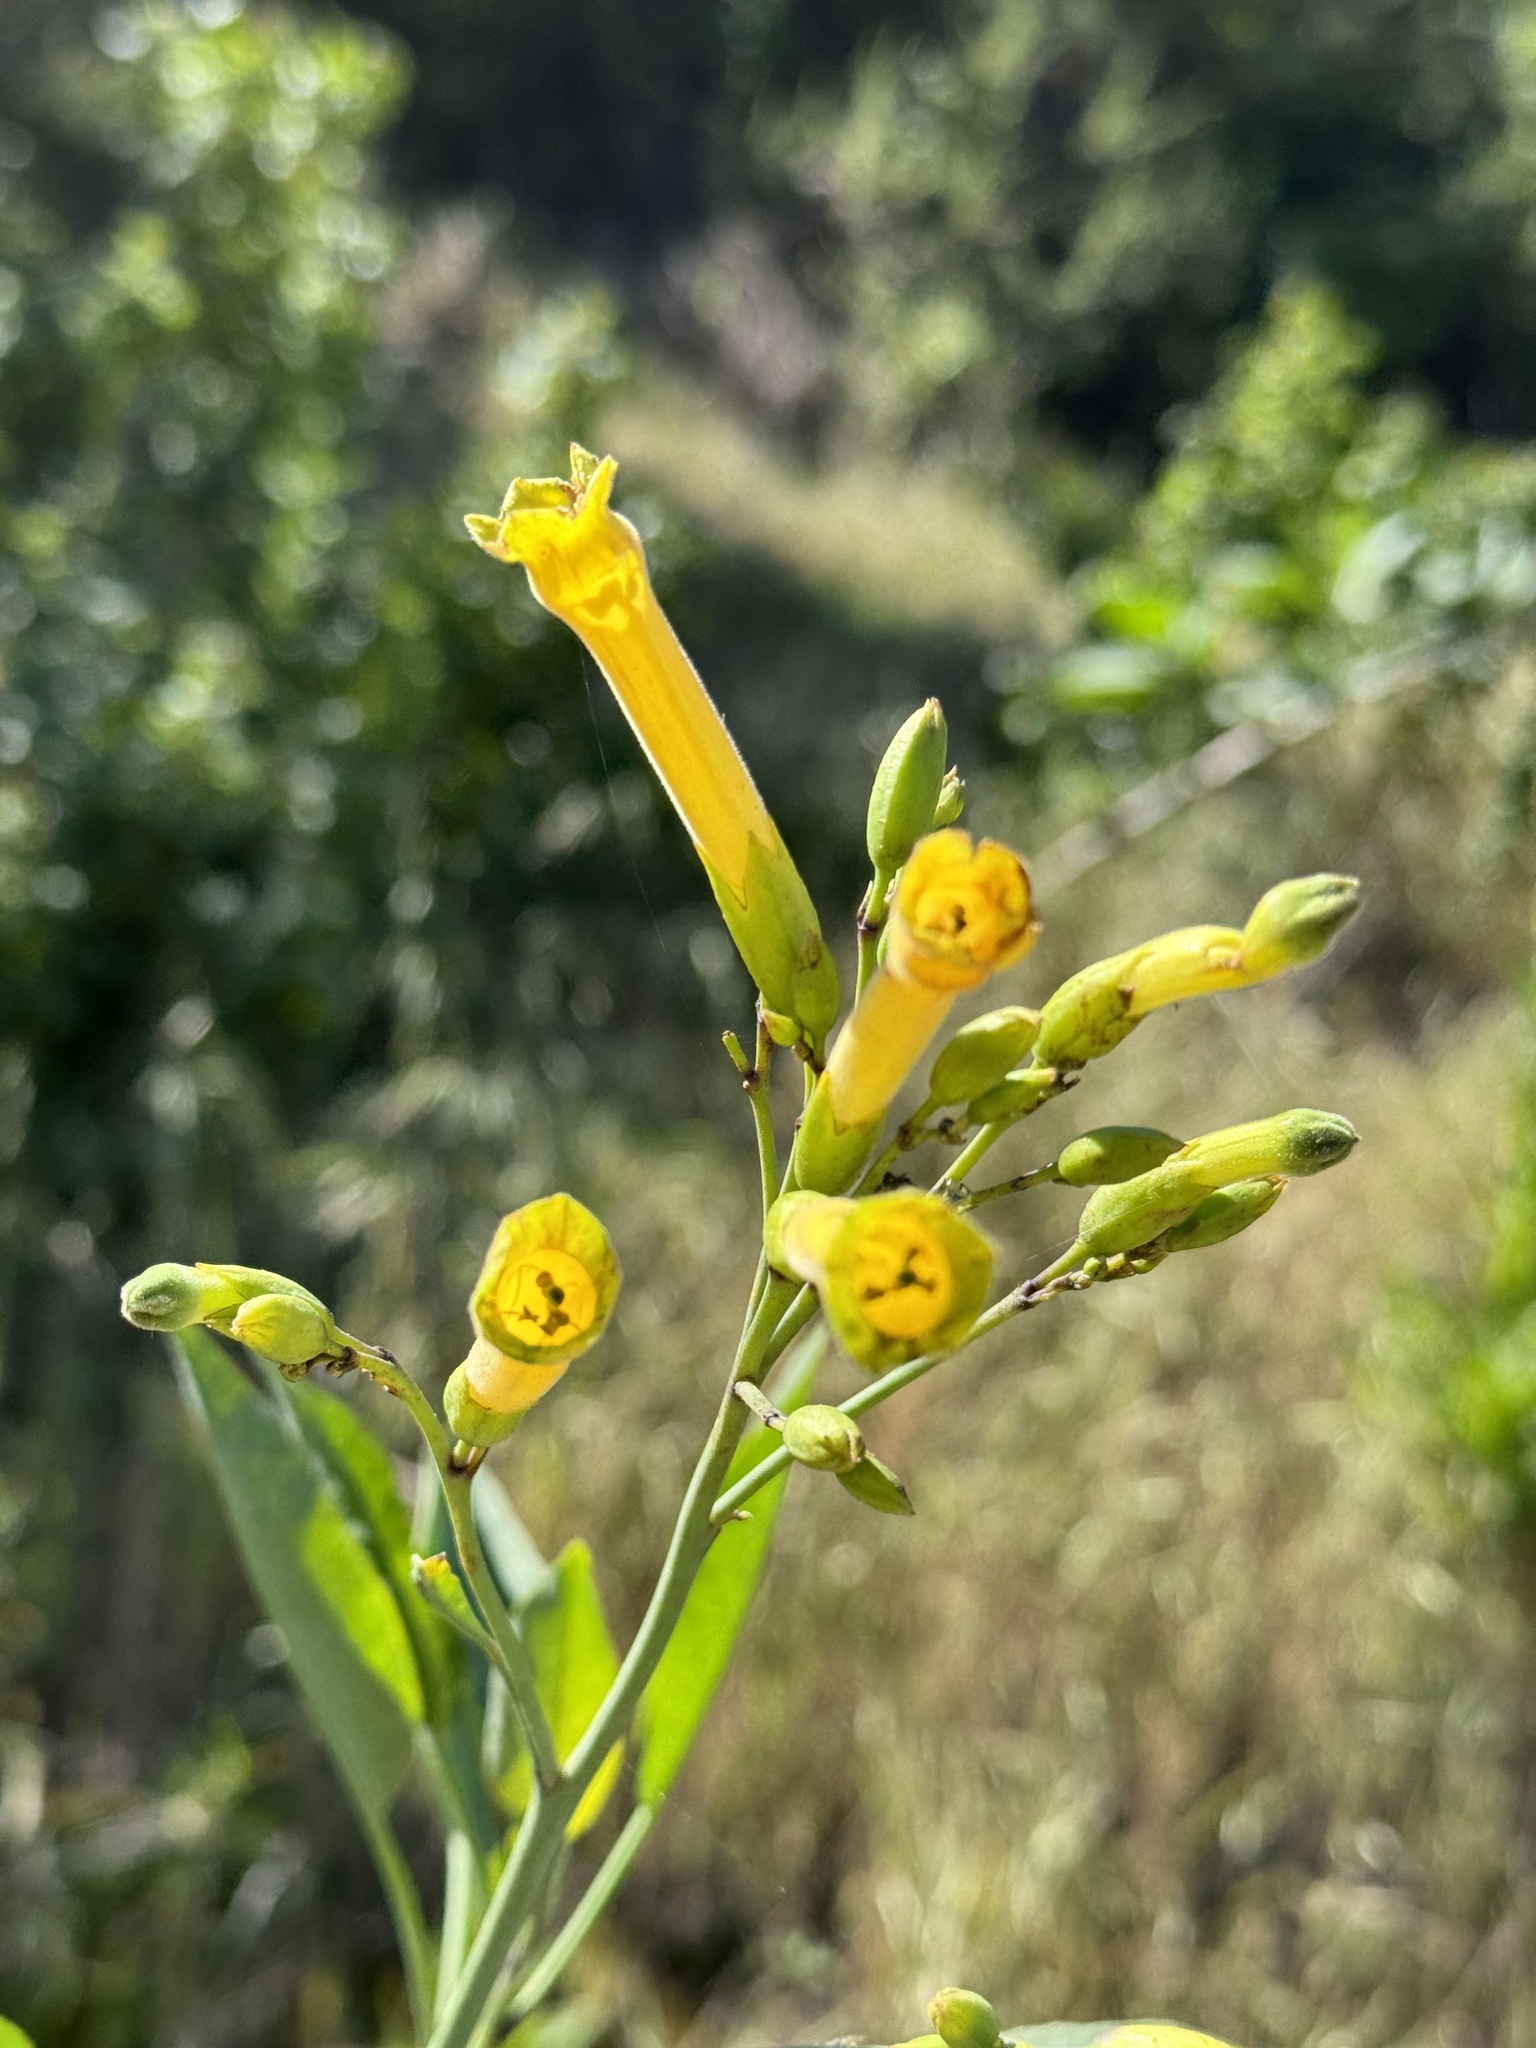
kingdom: Plantae
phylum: Tracheophyta
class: Magnoliopsida
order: Solanales
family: Solanaceae
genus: Nicotiana
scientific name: Nicotiana glauca
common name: Tree tobacco
